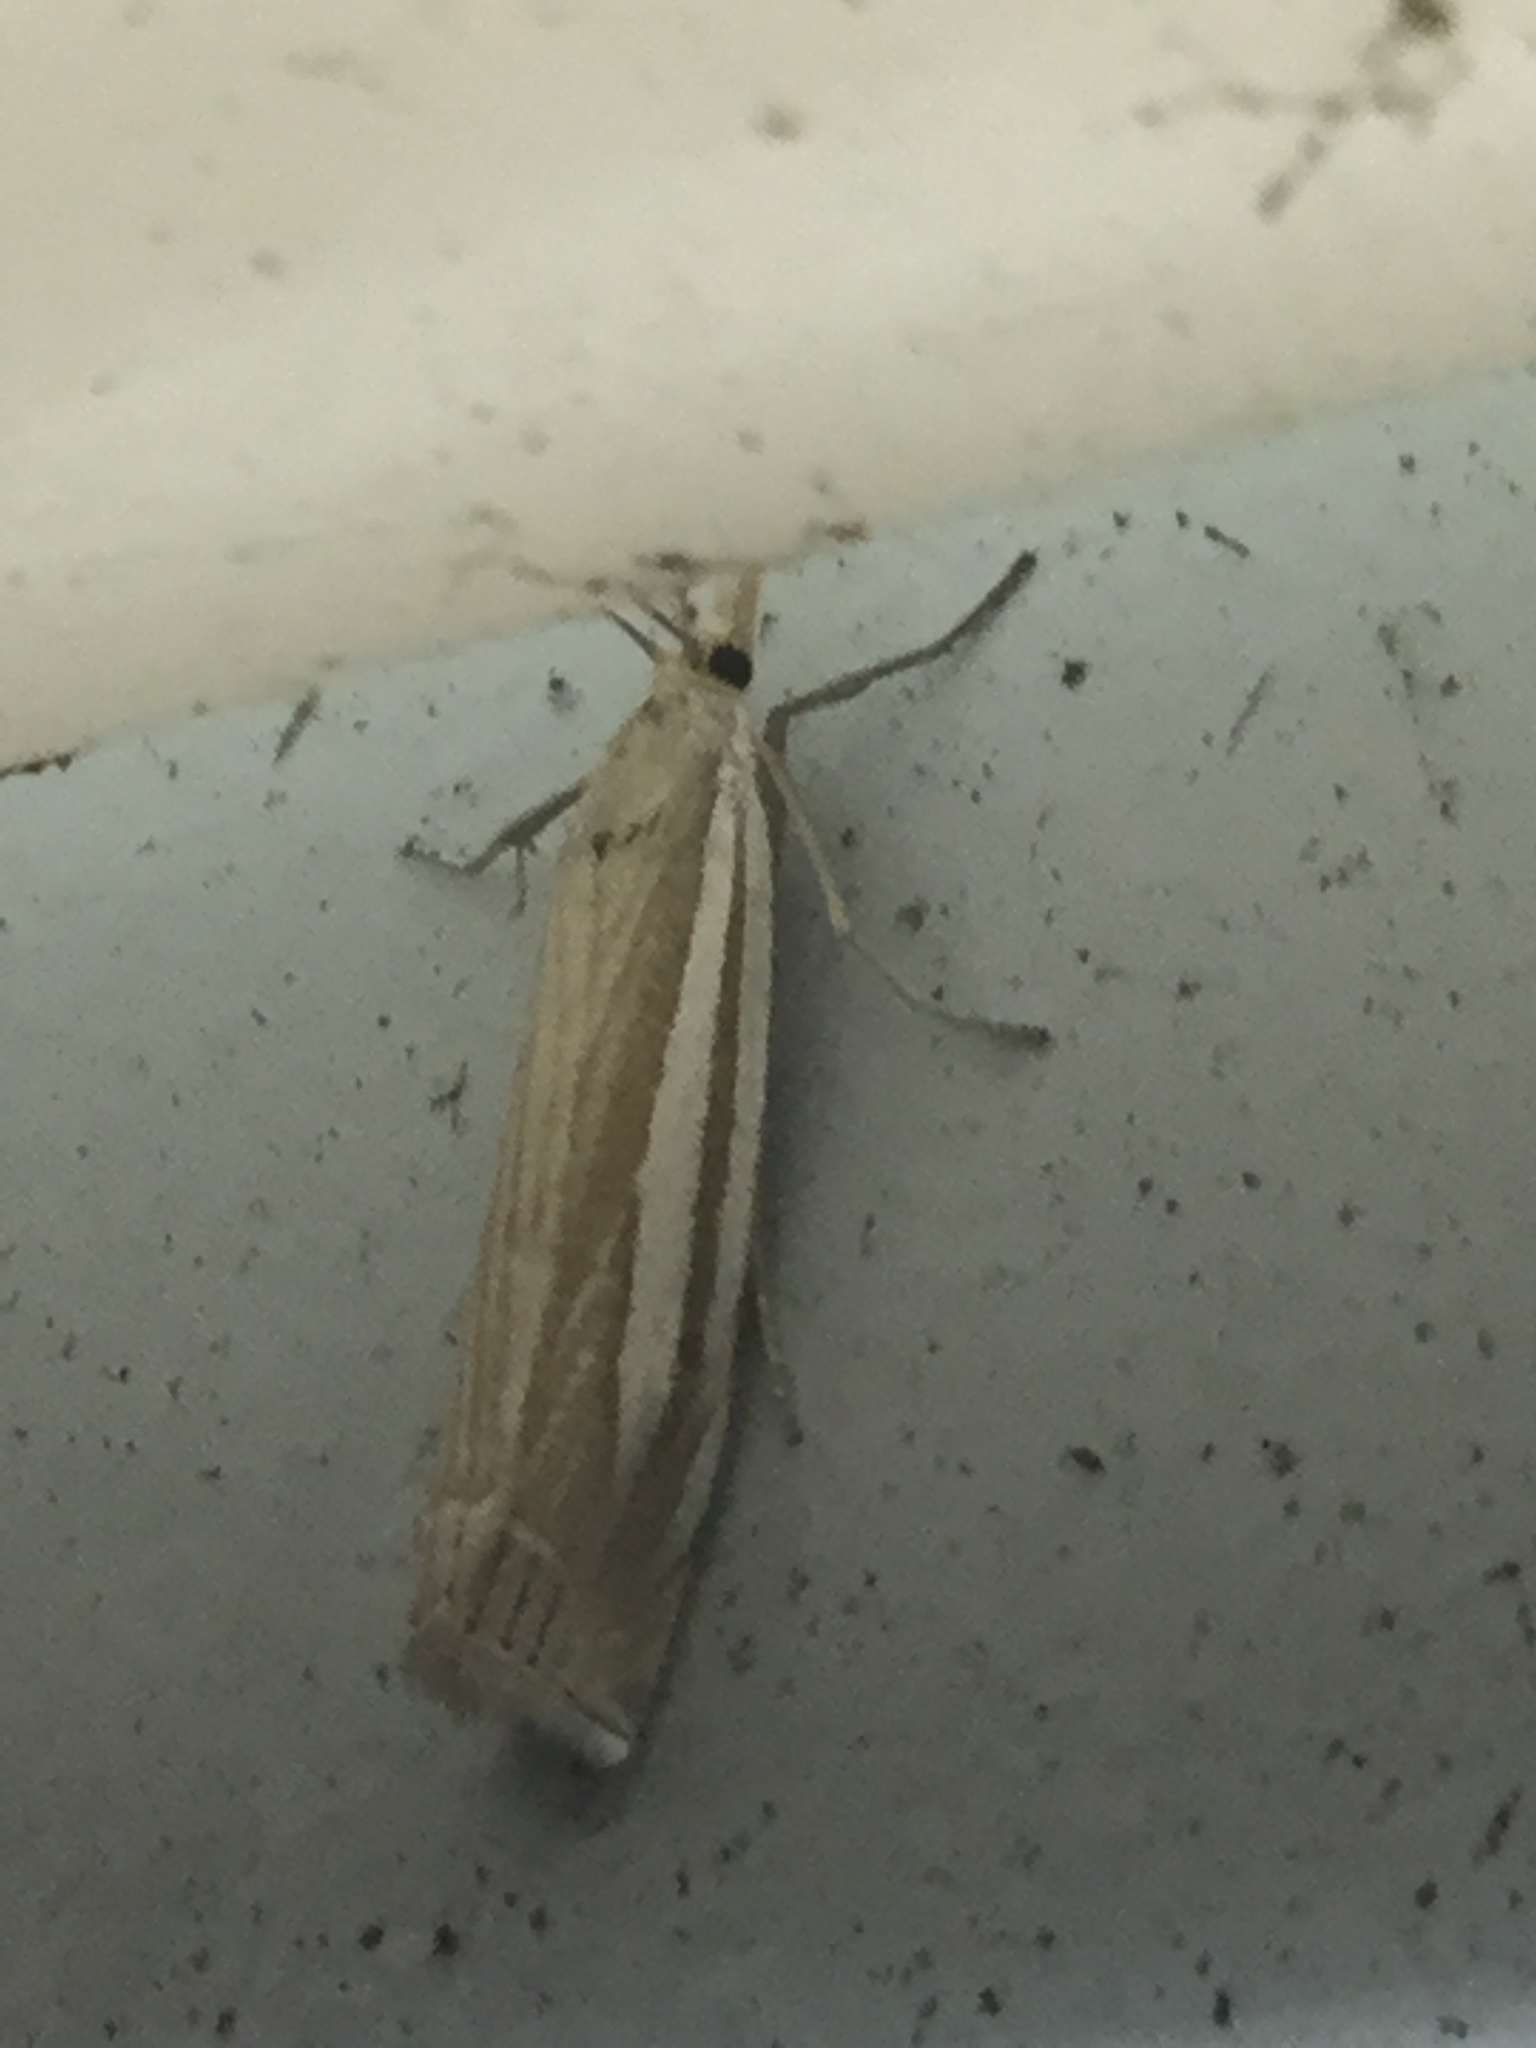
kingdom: Animalia
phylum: Arthropoda
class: Insecta
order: Lepidoptera
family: Crambidae
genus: Crambus
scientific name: Crambus laqueatellus
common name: Eastern grass-veneer
